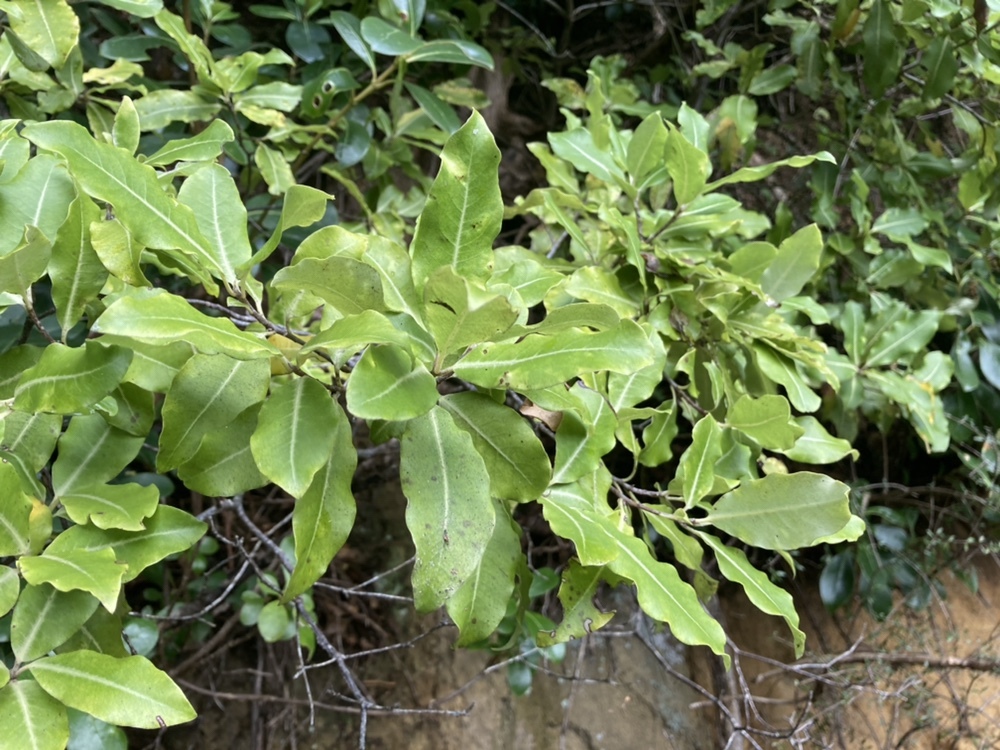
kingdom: Plantae
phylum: Tracheophyta
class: Magnoliopsida
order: Apiales
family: Pittosporaceae
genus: Pittosporum
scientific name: Pittosporum eugenioides
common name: Lemonwood
